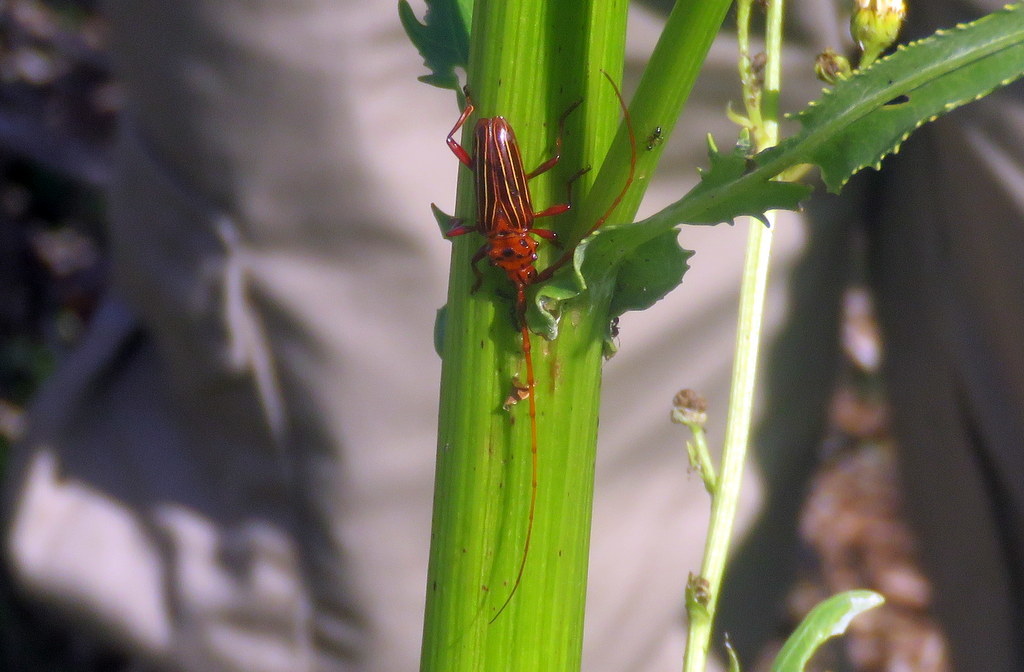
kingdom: Animalia
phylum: Arthropoda
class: Insecta
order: Coleoptera
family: Cerambycidae
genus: Chydarteres
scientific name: Chydarteres striatus
